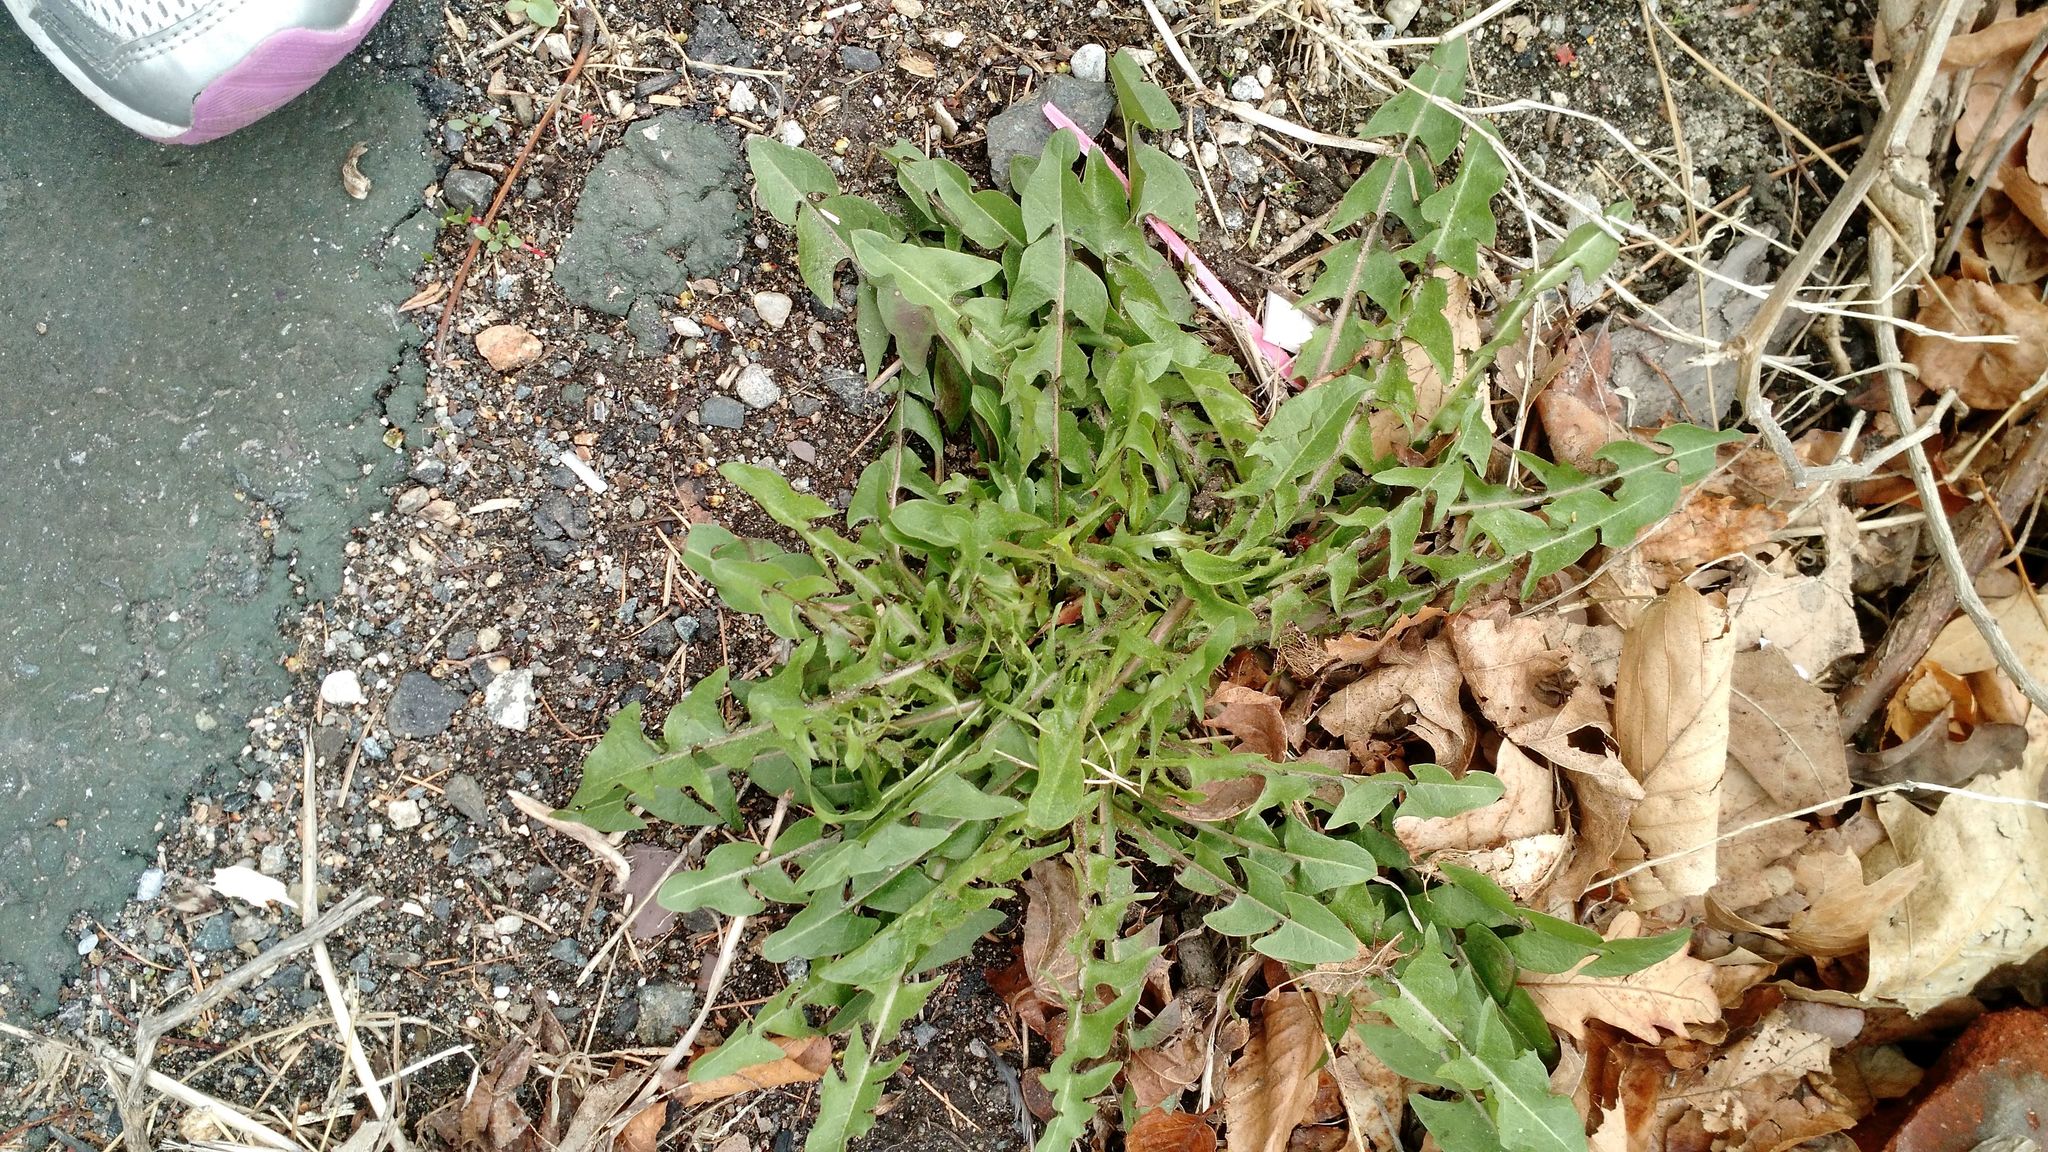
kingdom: Plantae
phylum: Tracheophyta
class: Magnoliopsida
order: Asterales
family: Asteraceae
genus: Taraxacum
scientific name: Taraxacum officinale
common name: Common dandelion
